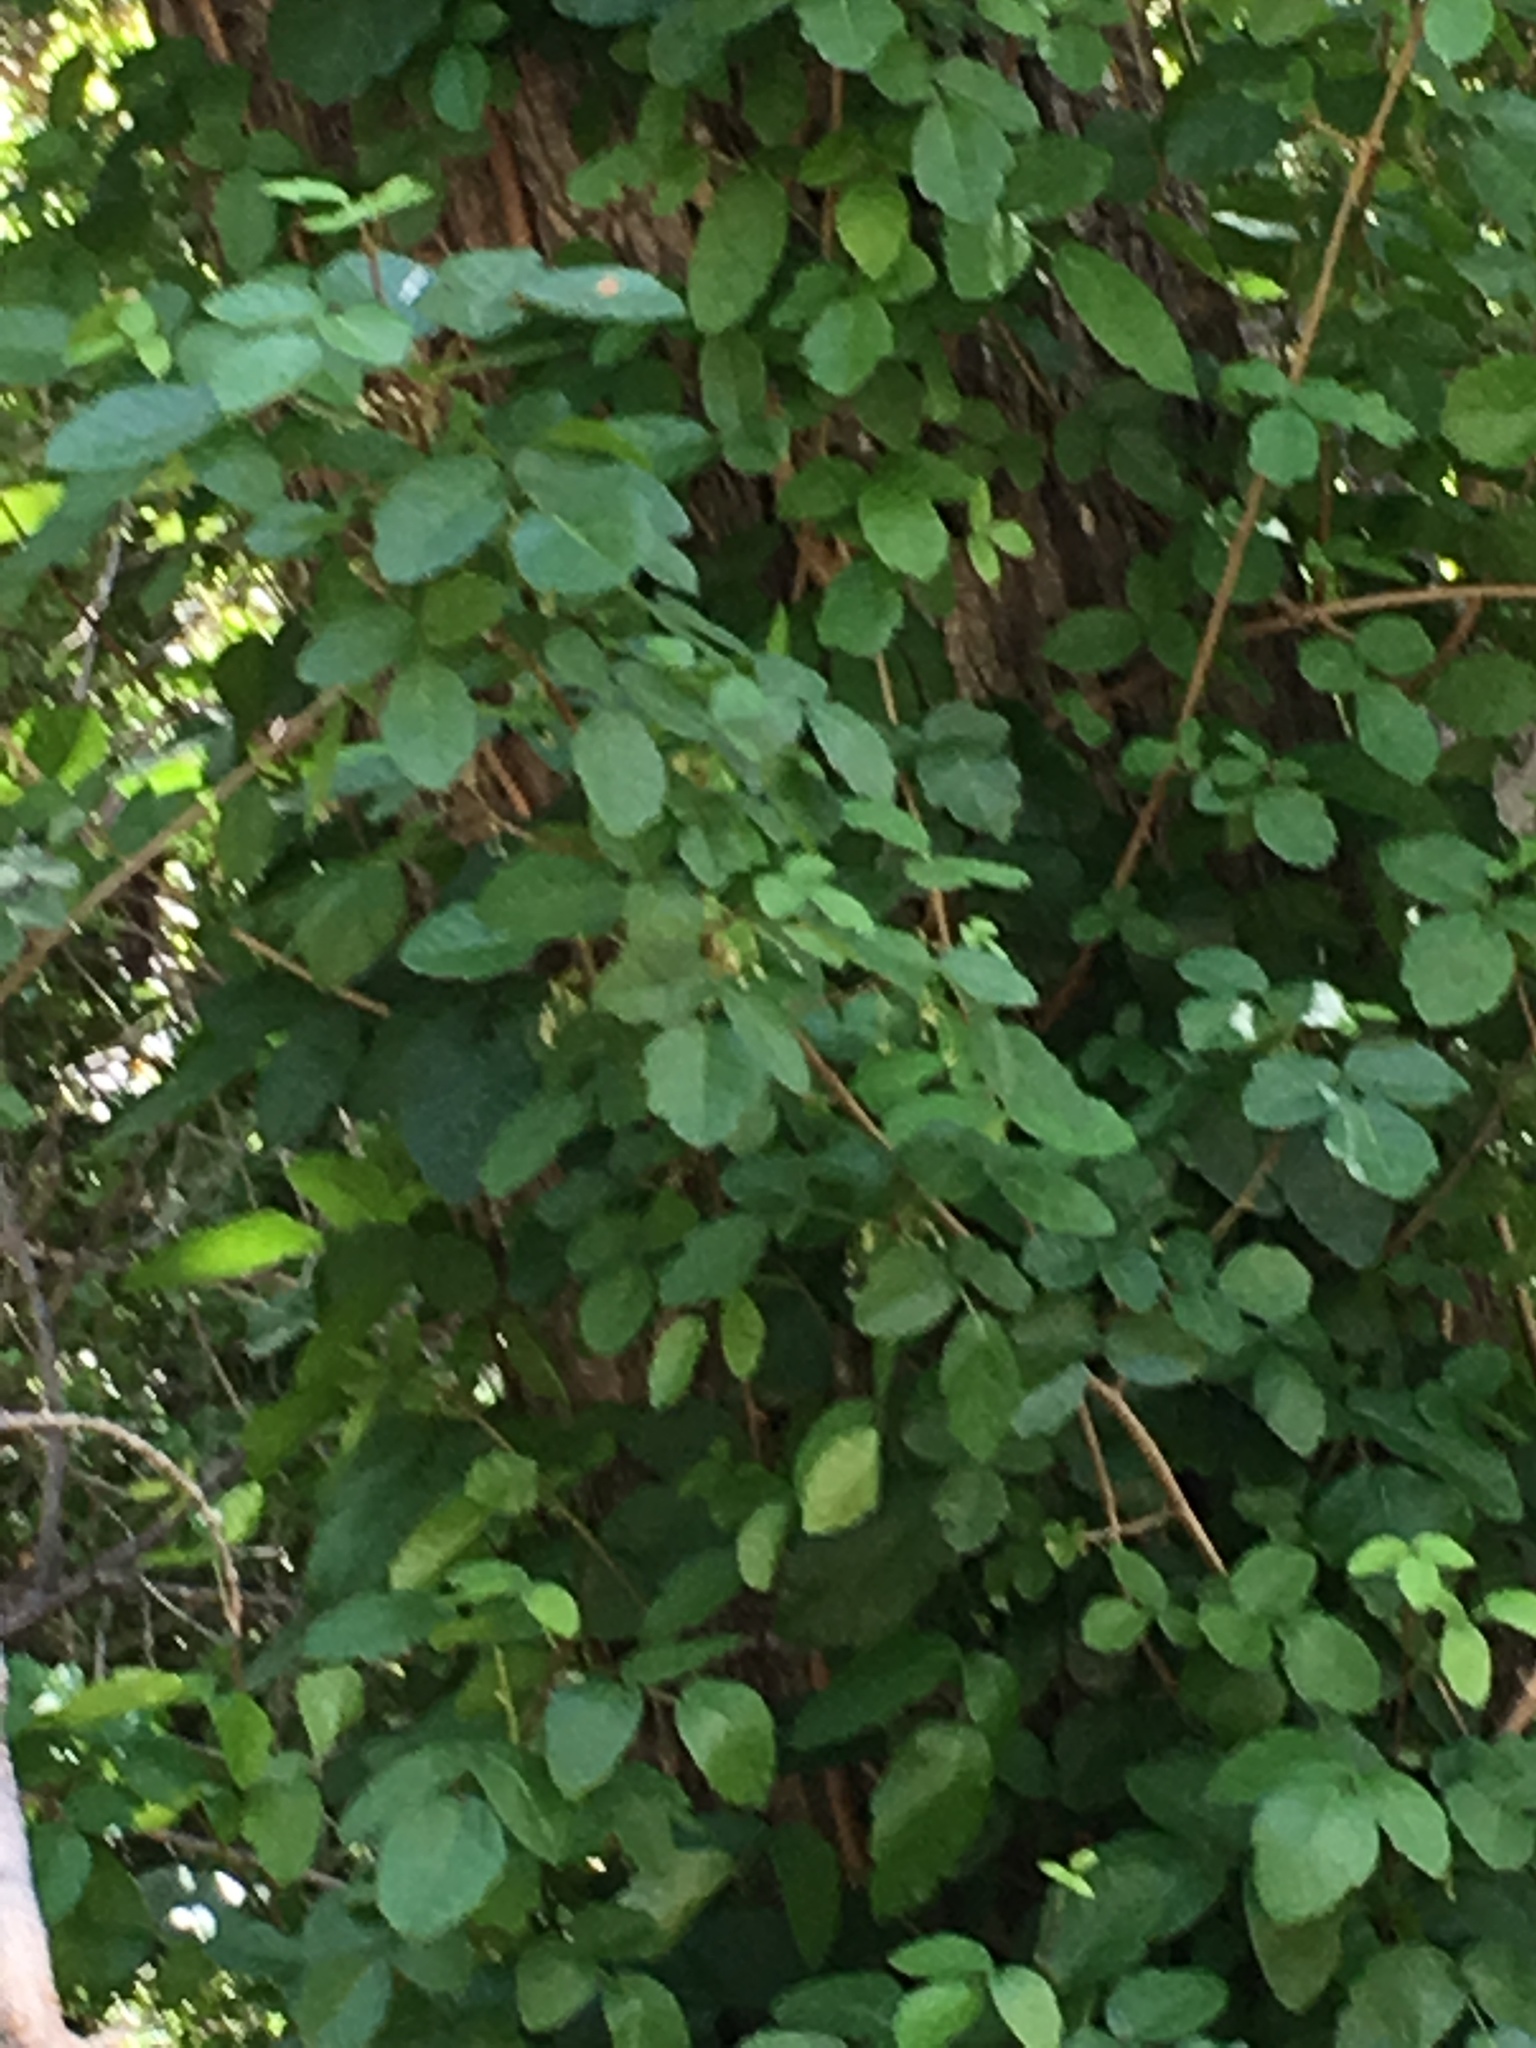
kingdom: Plantae
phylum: Tracheophyta
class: Magnoliopsida
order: Sapindales
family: Anacardiaceae
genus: Toxicodendron
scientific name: Toxicodendron diversilobum
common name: Pacific poison-oak
